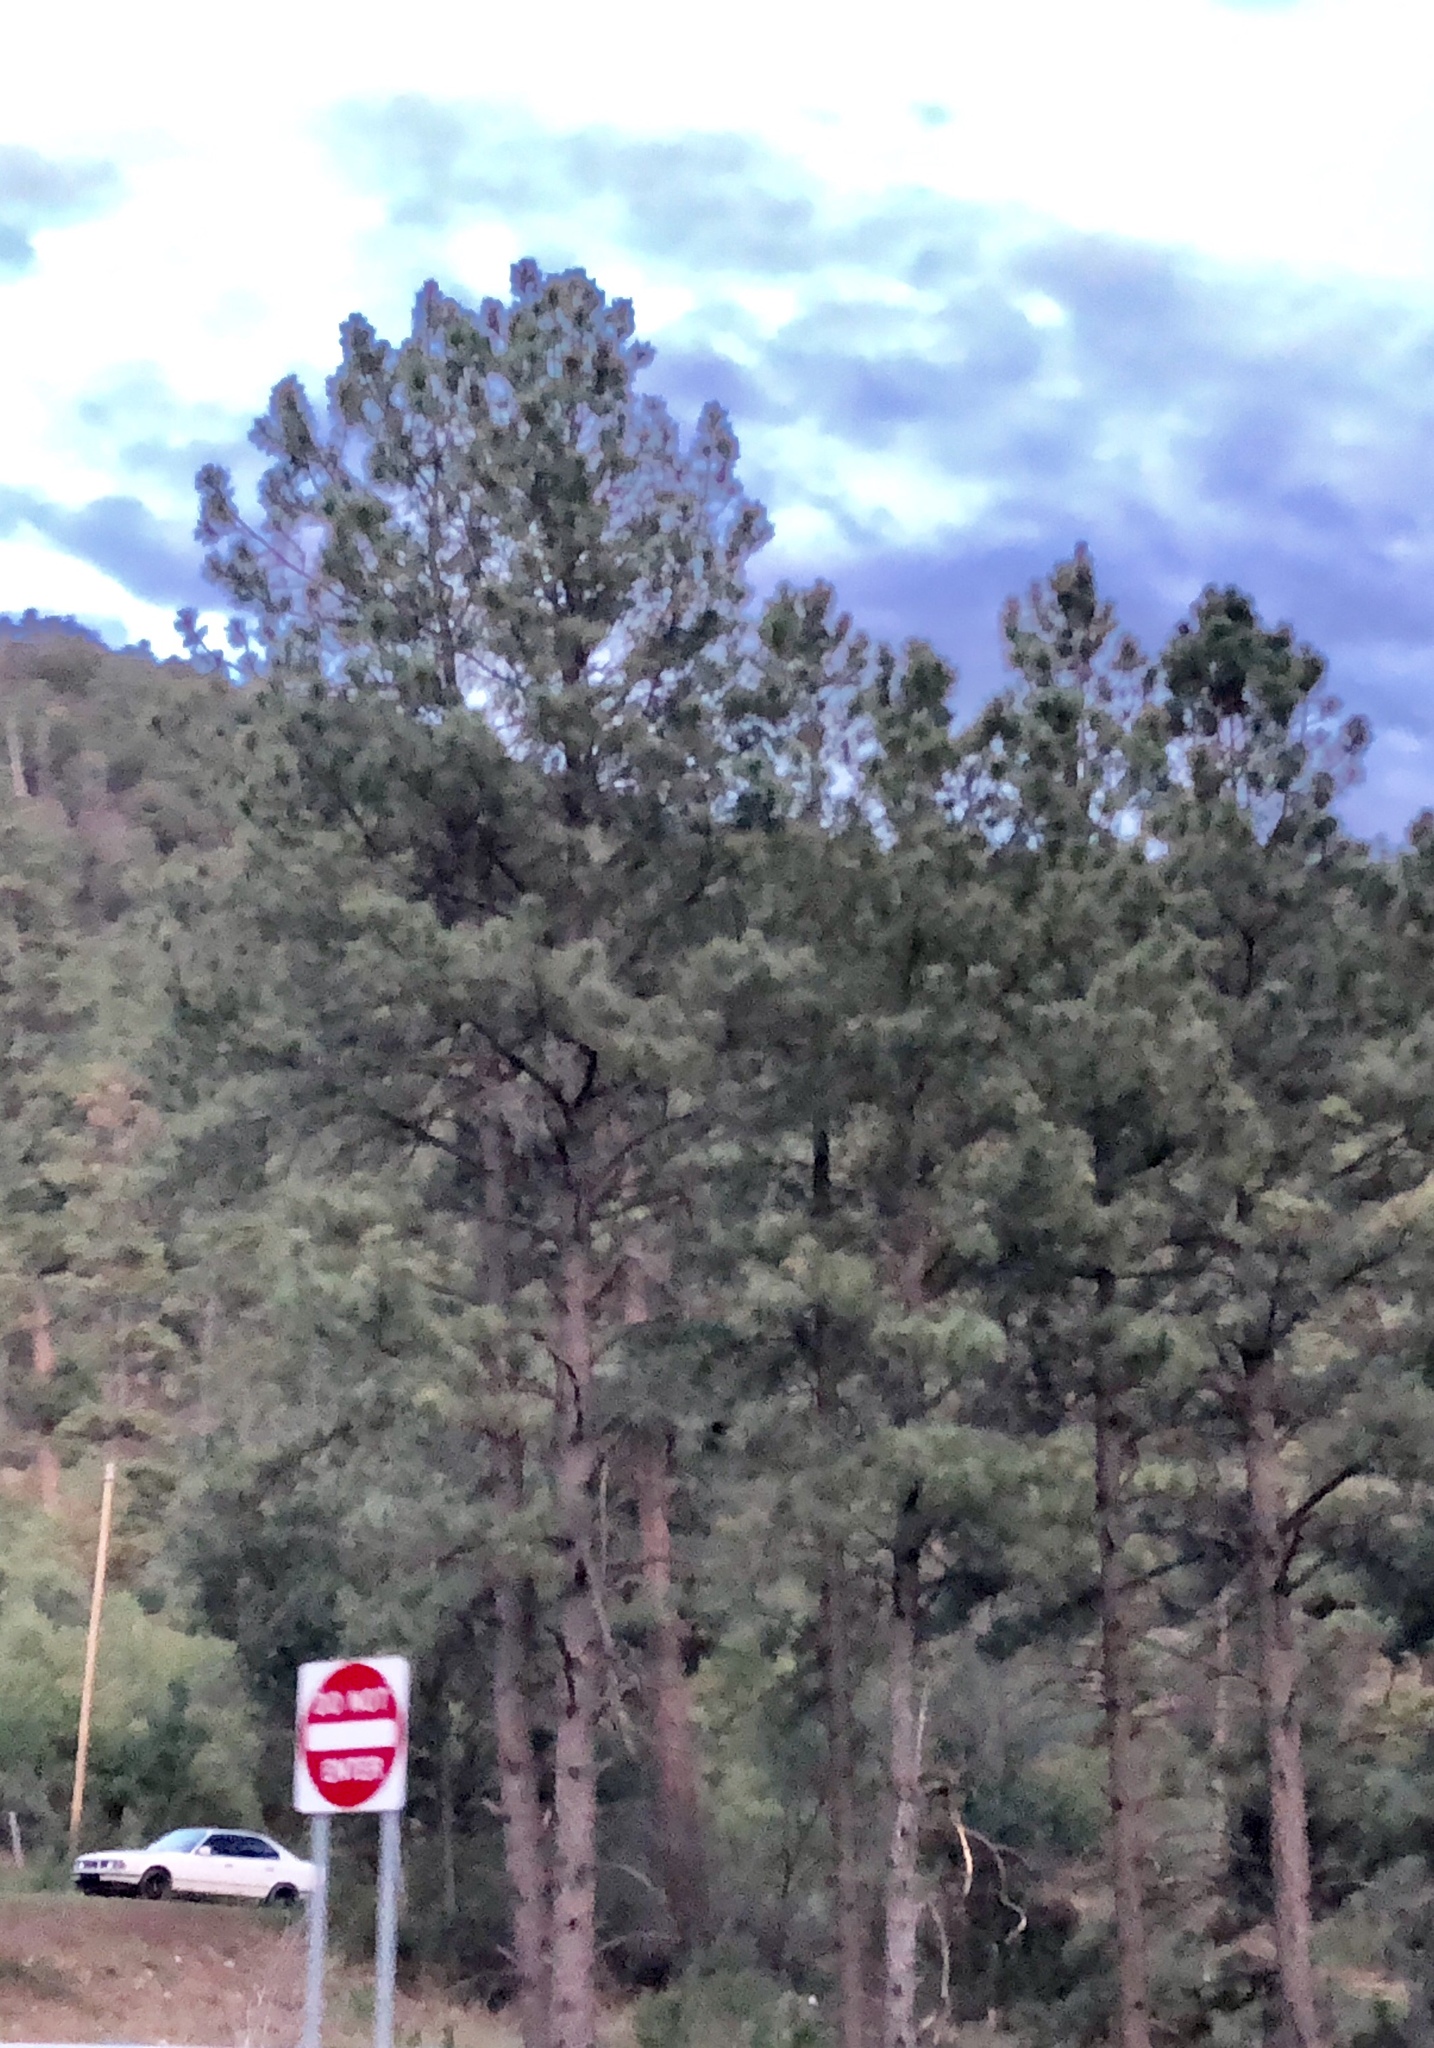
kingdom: Plantae
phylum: Tracheophyta
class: Pinopsida
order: Pinales
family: Pinaceae
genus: Pinus
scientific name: Pinus ponderosa
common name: Western yellow-pine
